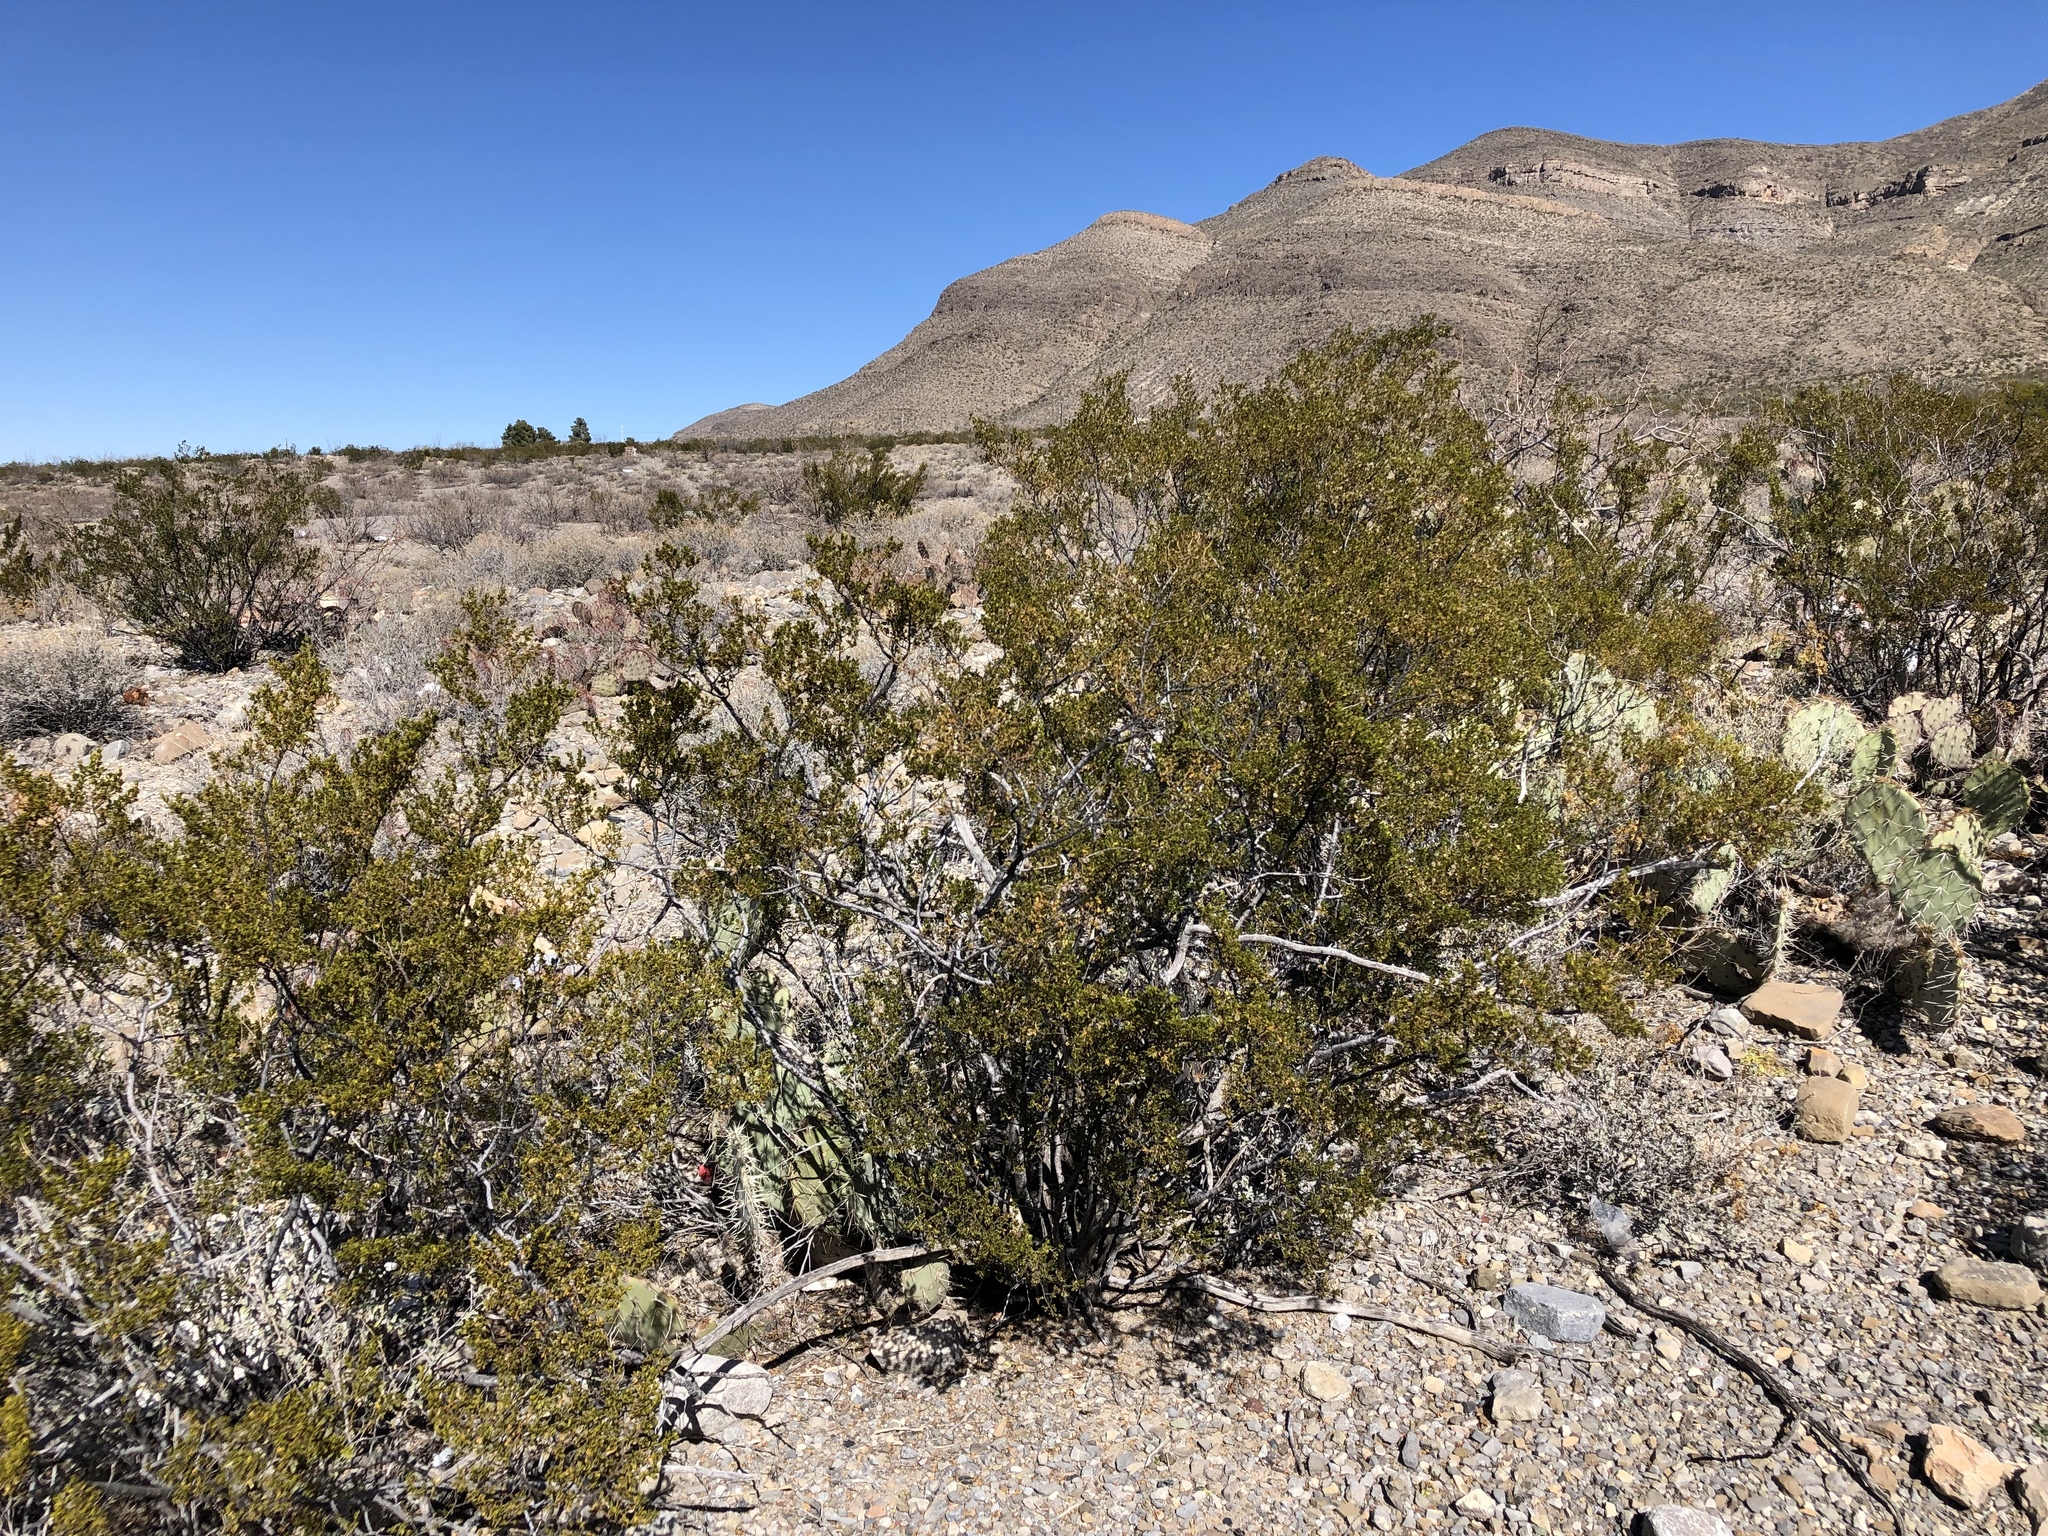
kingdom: Plantae
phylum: Tracheophyta
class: Magnoliopsida
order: Zygophyllales
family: Zygophyllaceae
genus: Larrea
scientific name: Larrea tridentata
